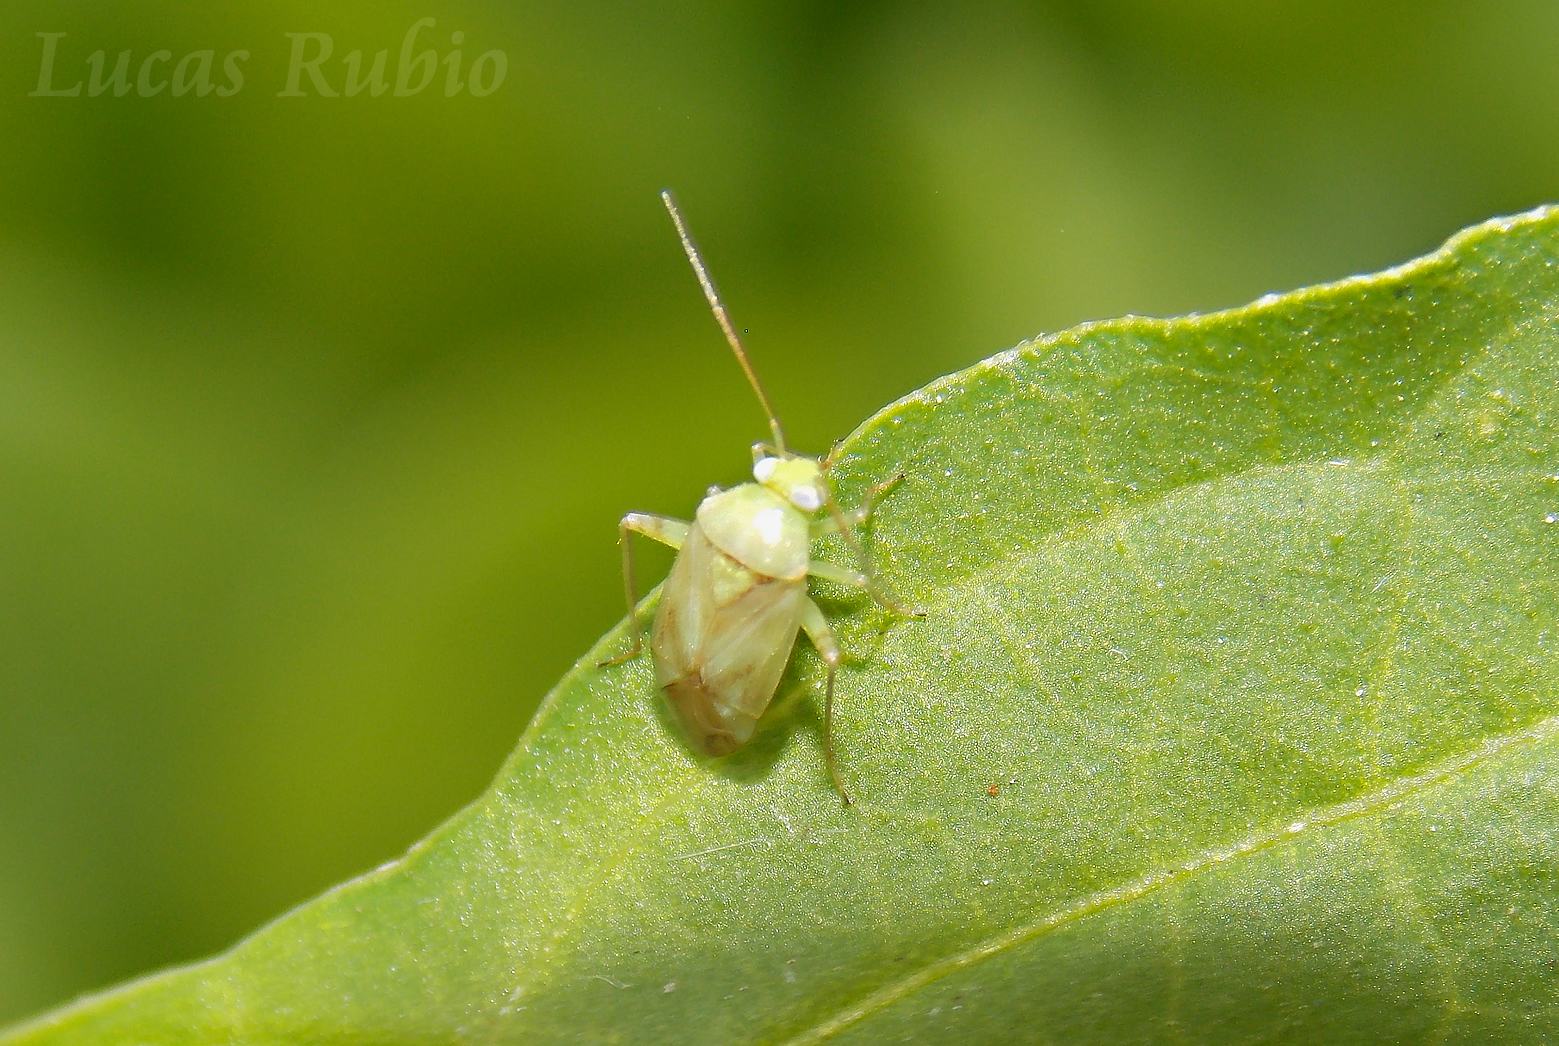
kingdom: Animalia
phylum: Arthropoda
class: Insecta
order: Hemiptera
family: Miridae
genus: Taylorilygus
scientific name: Taylorilygus apicalis
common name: Plant bug
